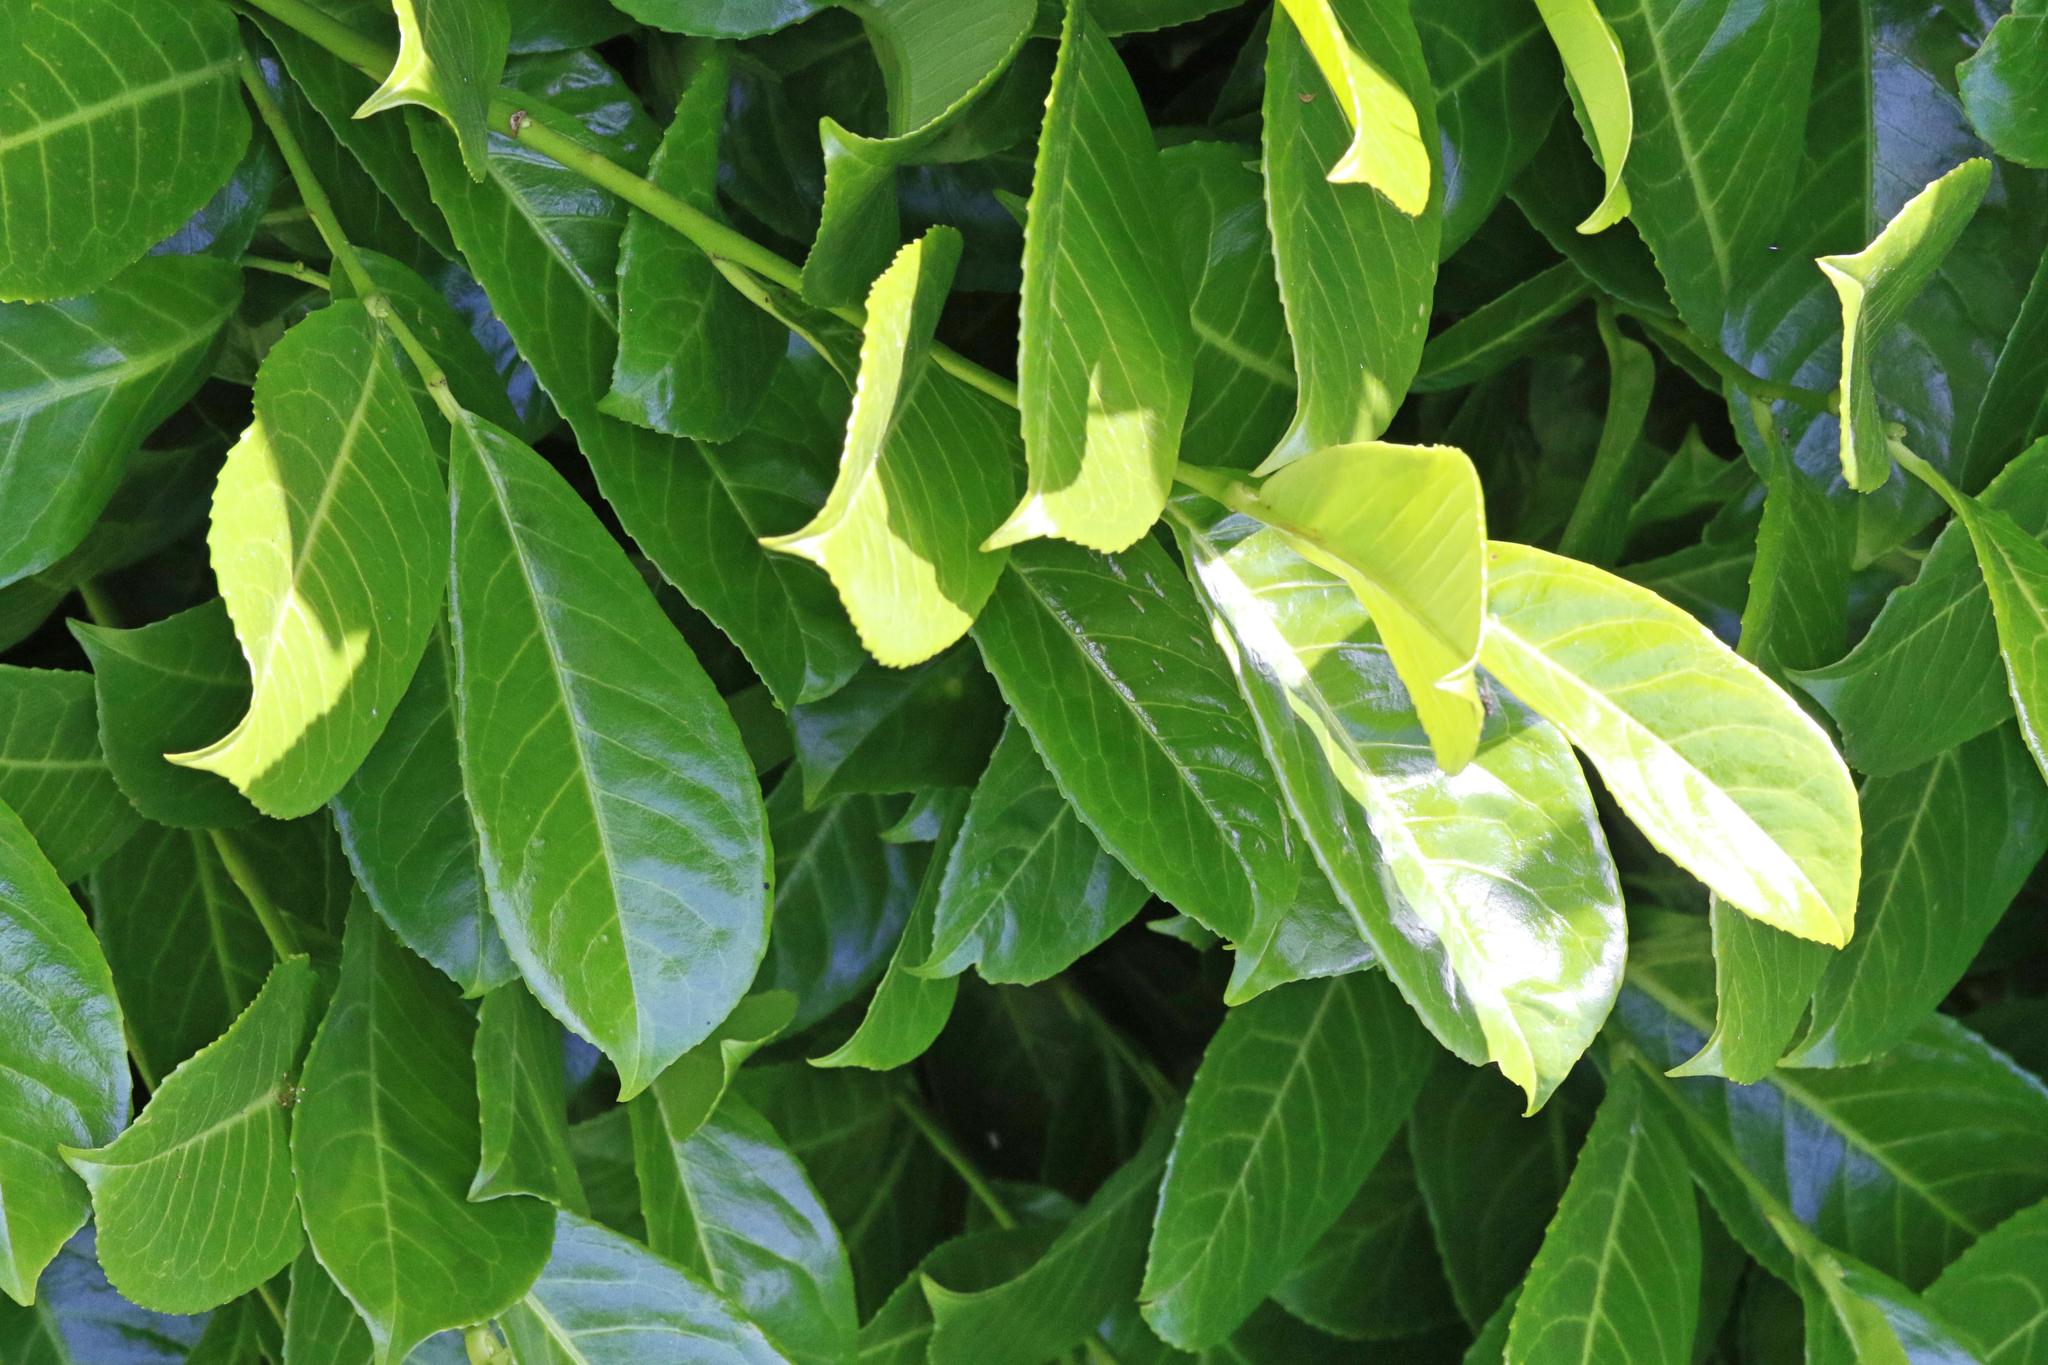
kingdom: Plantae
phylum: Tracheophyta
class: Magnoliopsida
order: Rosales
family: Rosaceae
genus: Prunus
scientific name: Prunus laurocerasus
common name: Cherry laurel
